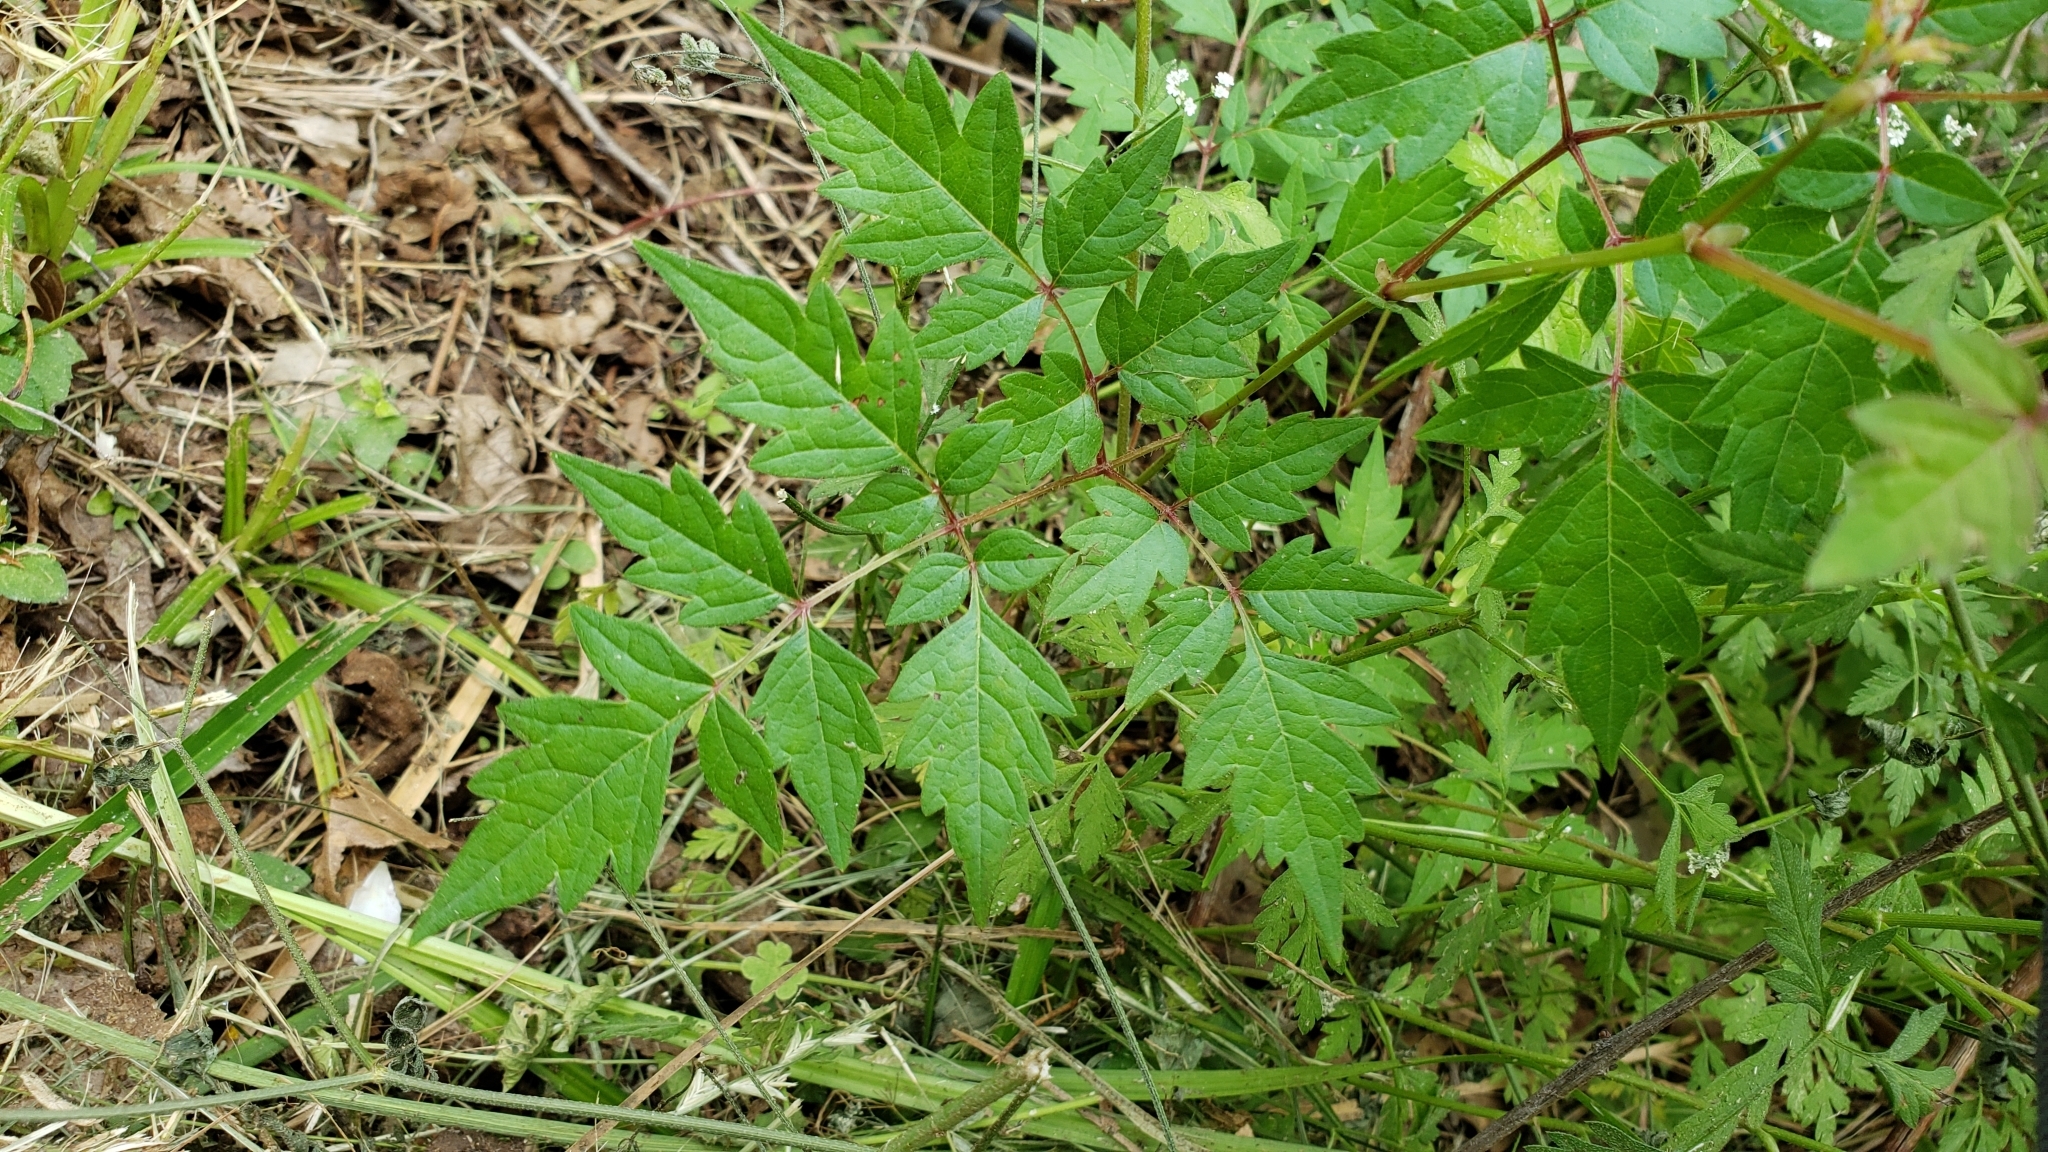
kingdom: Plantae
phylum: Tracheophyta
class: Magnoliopsida
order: Vitales
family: Vitaceae
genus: Nekemias
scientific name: Nekemias arborea
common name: Peppervine
